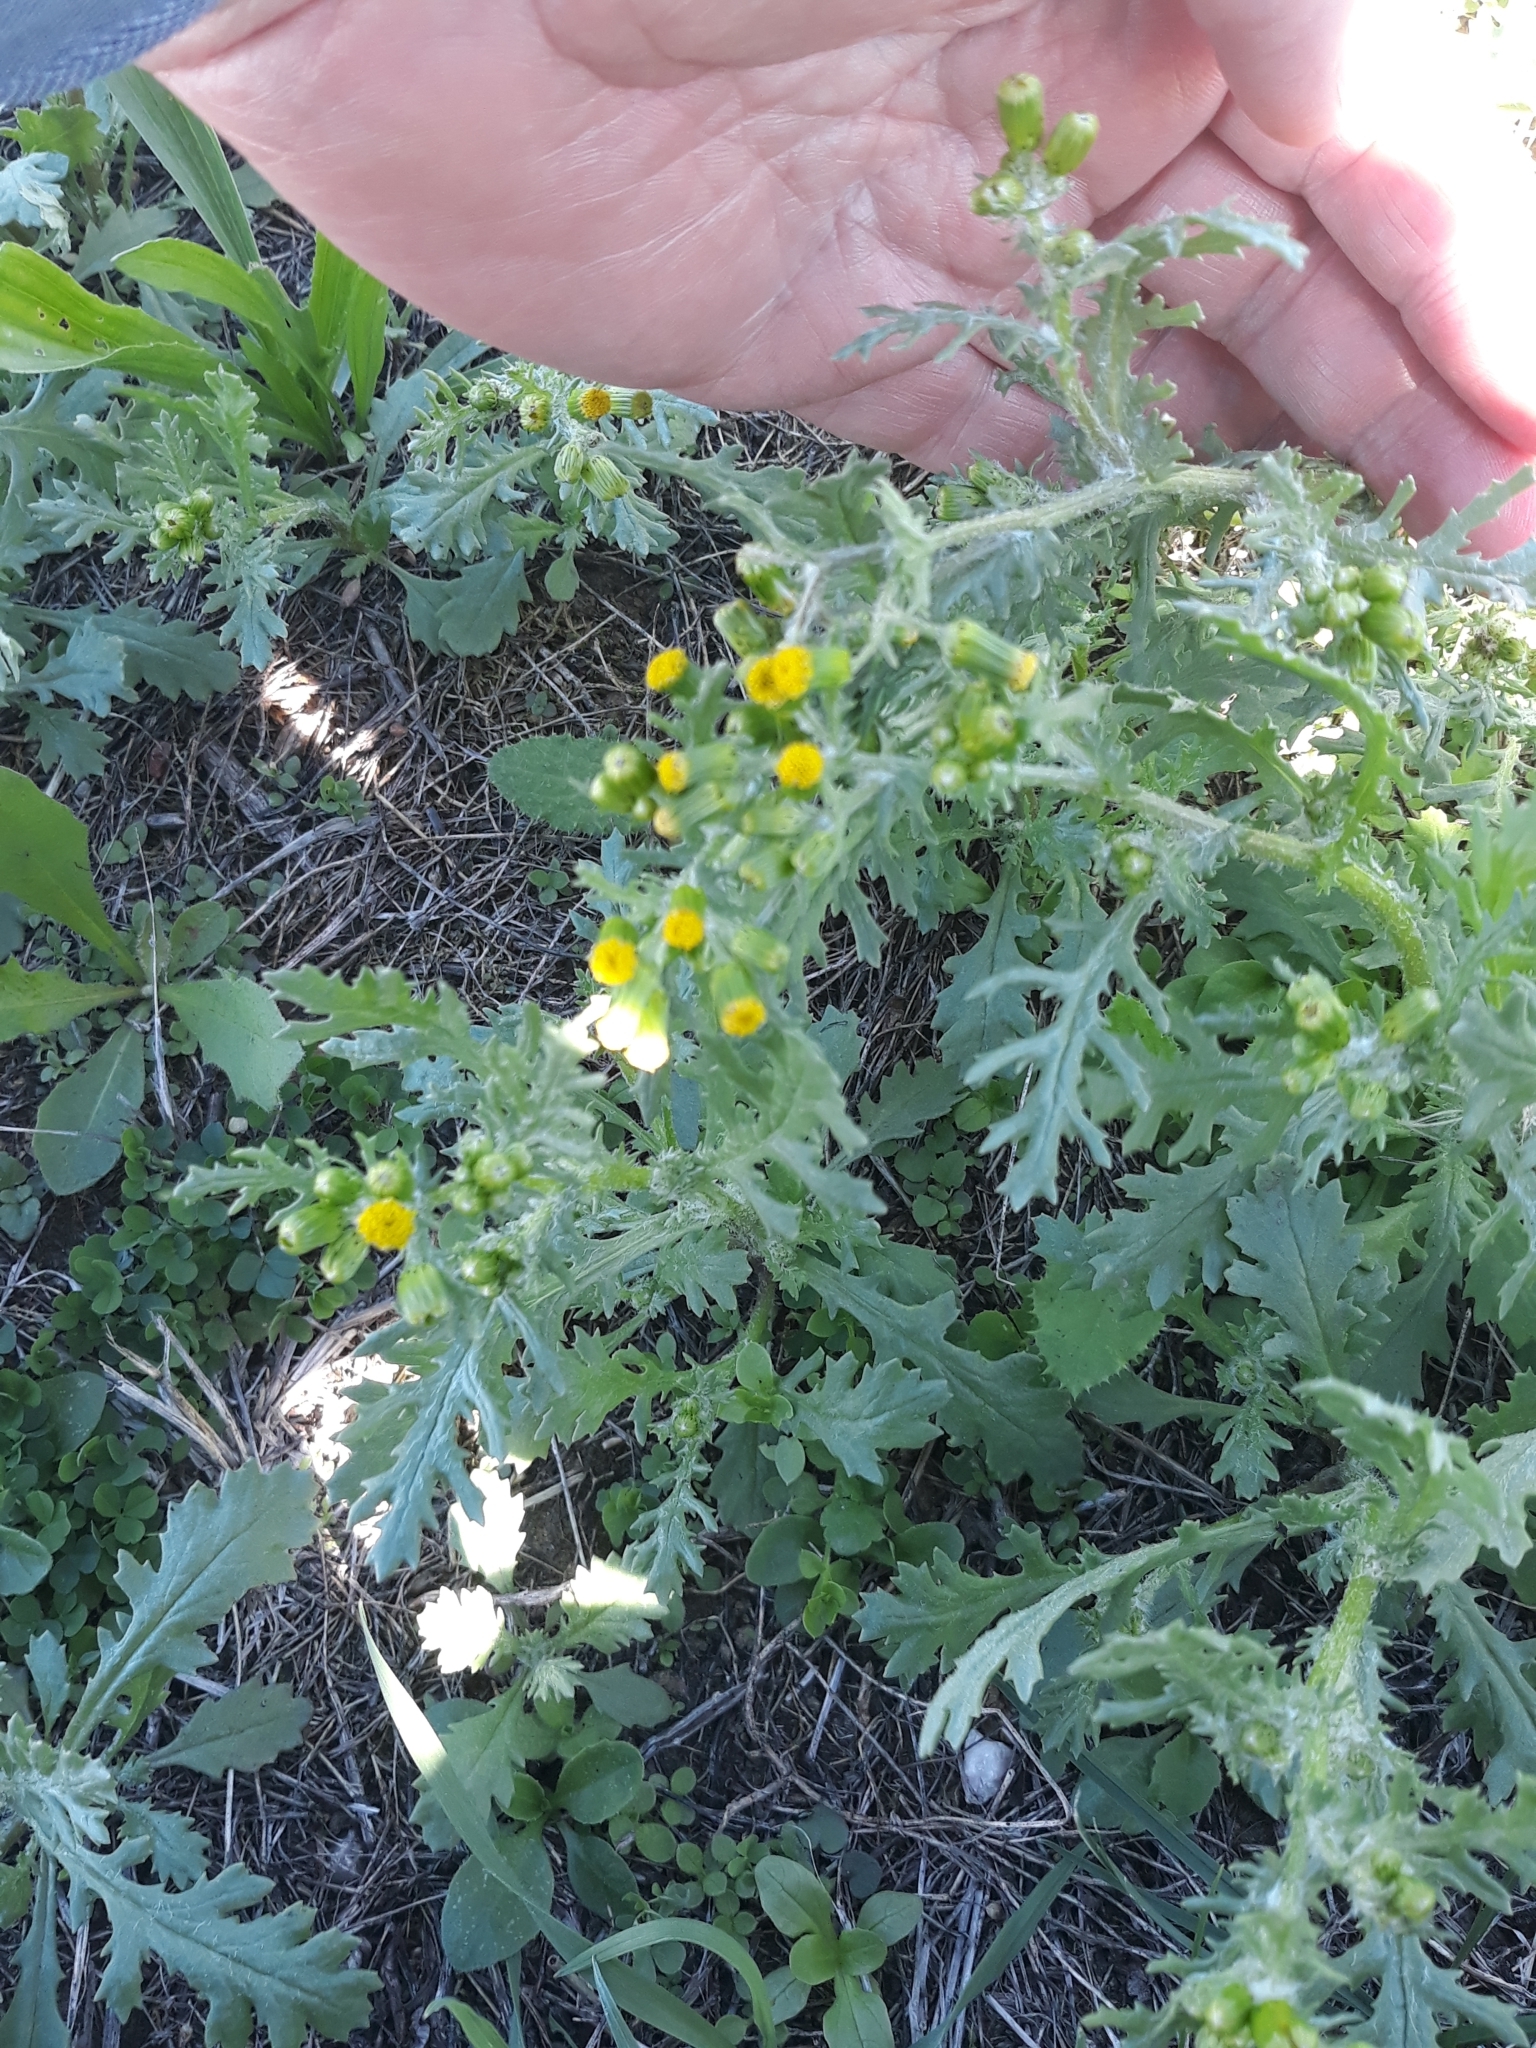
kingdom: Plantae
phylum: Tracheophyta
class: Magnoliopsida
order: Asterales
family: Asteraceae
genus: Senecio
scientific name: Senecio vulgaris
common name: Old-man-in-the-spring
